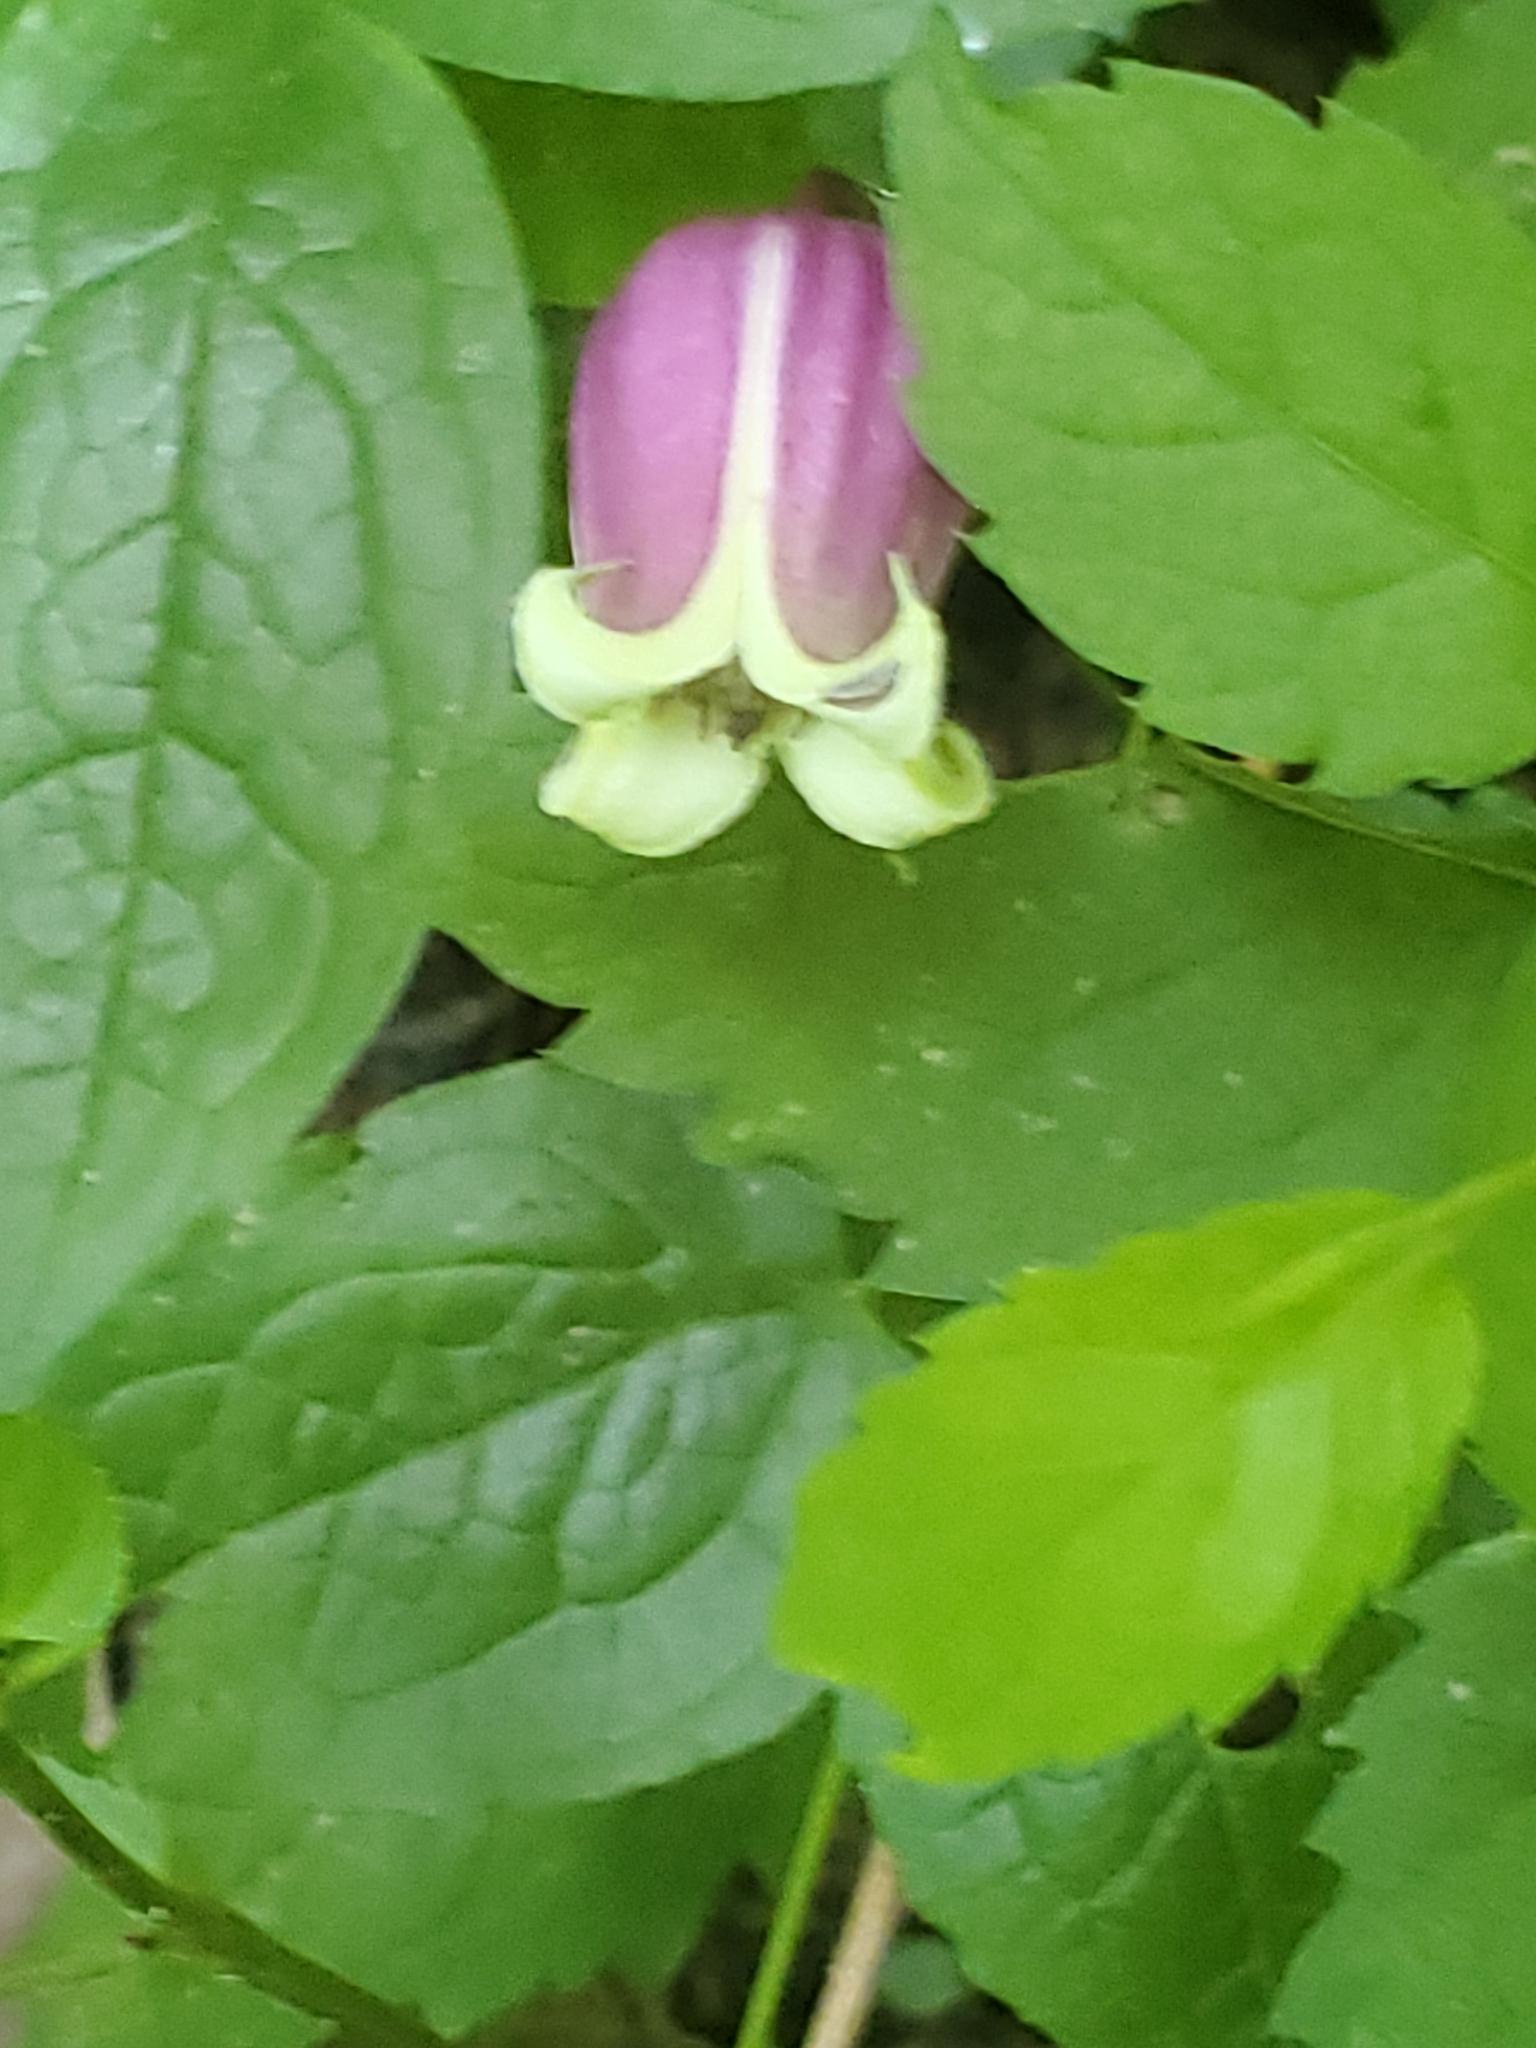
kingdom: Plantae
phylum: Tracheophyta
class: Magnoliopsida
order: Ranunculales
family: Ranunculaceae
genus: Clematis
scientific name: Clematis viorna
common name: Leather-flower
